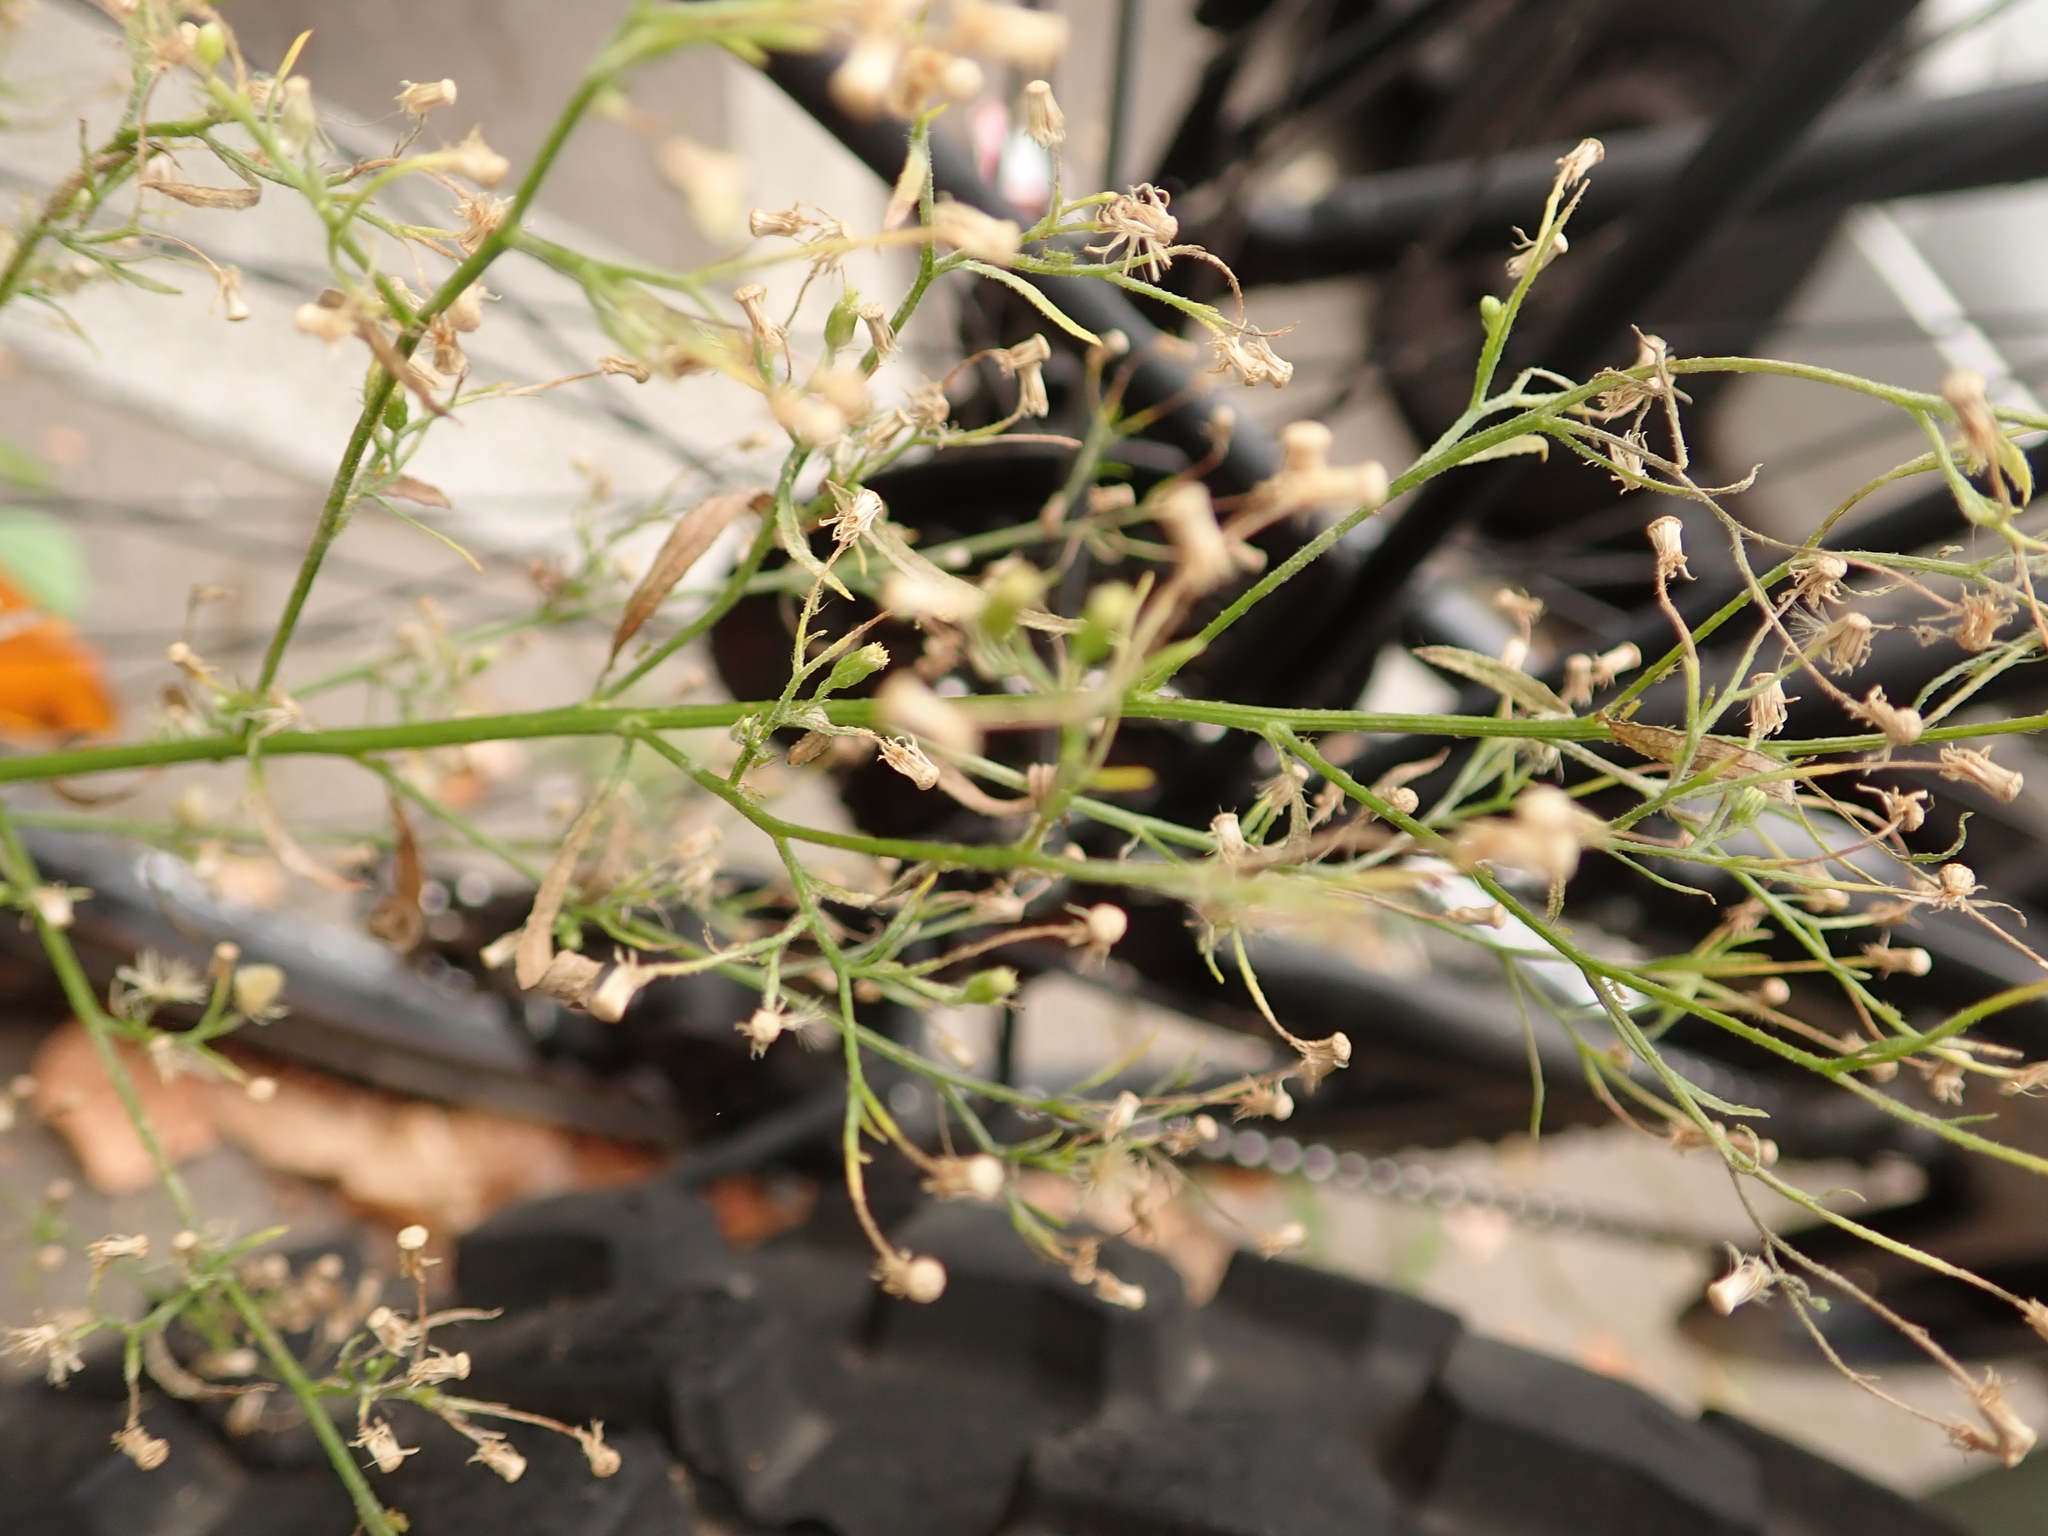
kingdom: Plantae
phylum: Tracheophyta
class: Magnoliopsida
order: Asterales
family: Asteraceae
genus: Erigeron
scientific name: Erigeron canadensis
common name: Canadian fleabane
